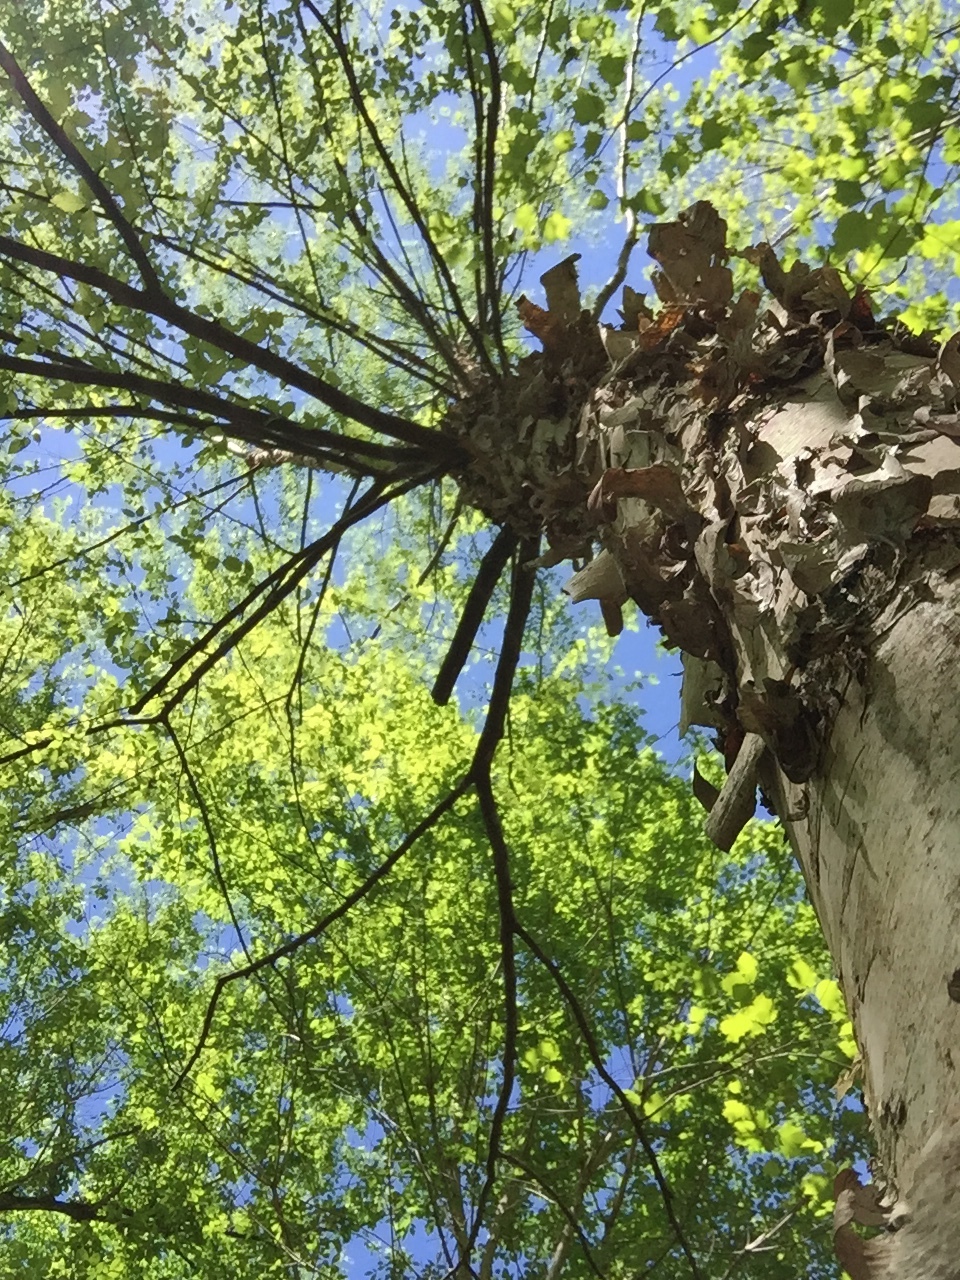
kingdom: Plantae
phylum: Tracheophyta
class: Magnoliopsida
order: Fagales
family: Betulaceae
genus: Betula
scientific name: Betula nigra
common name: Black birch
